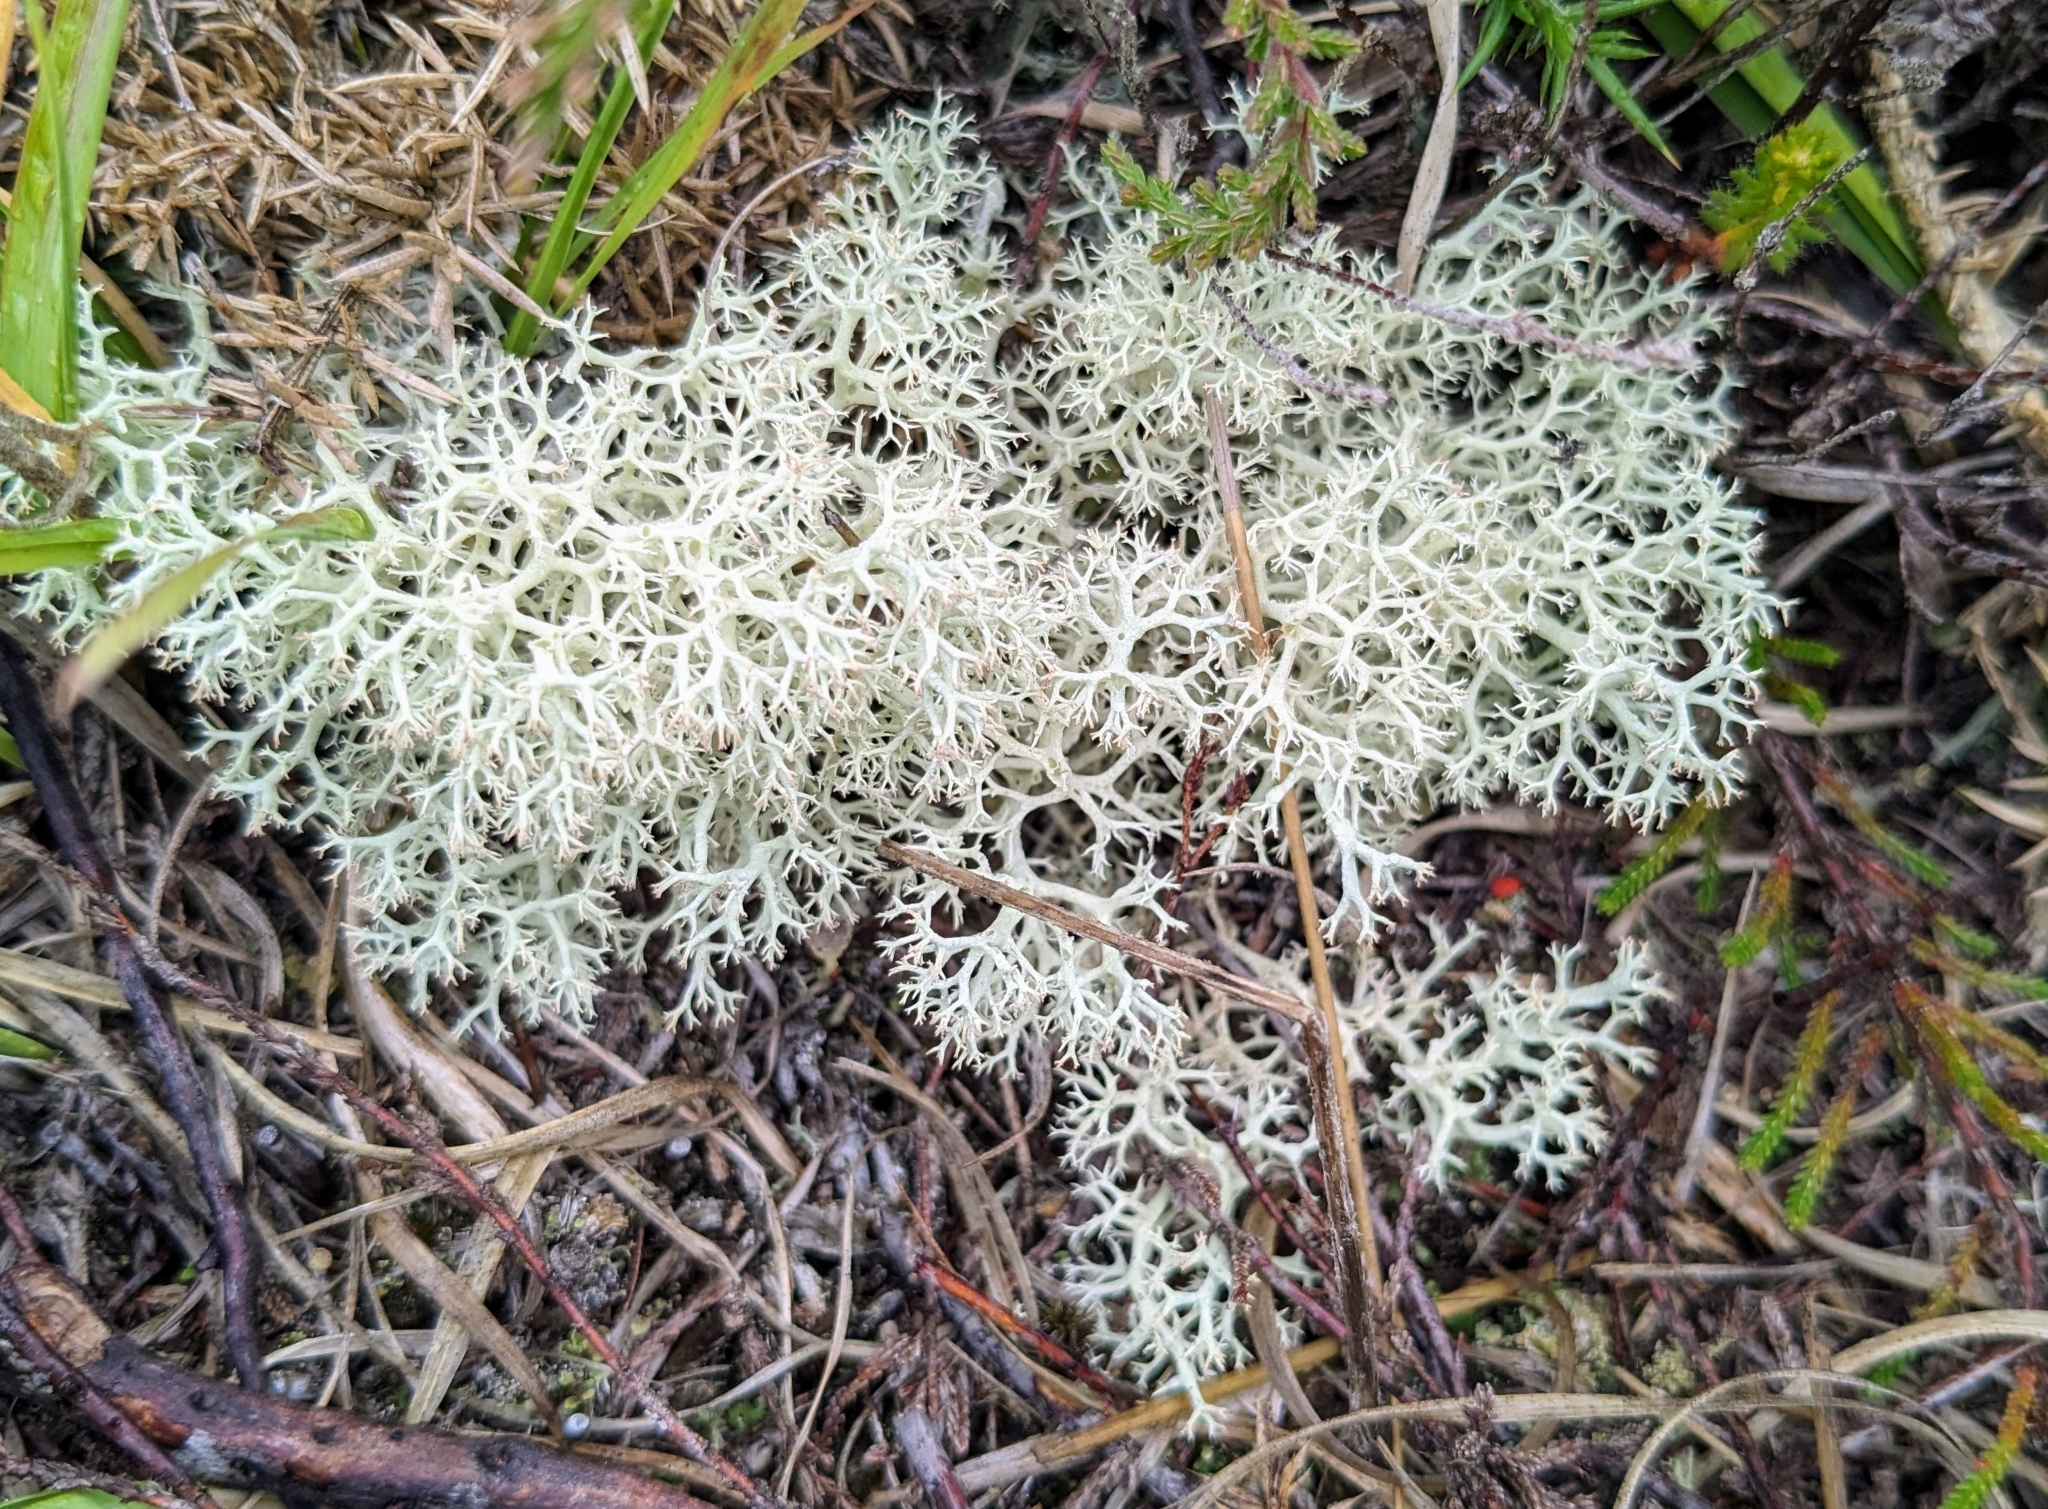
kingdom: Fungi
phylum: Ascomycota
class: Lecanoromycetes
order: Lecanorales
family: Cladoniaceae
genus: Cladonia
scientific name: Cladonia portentosa
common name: Reindeer lichen
